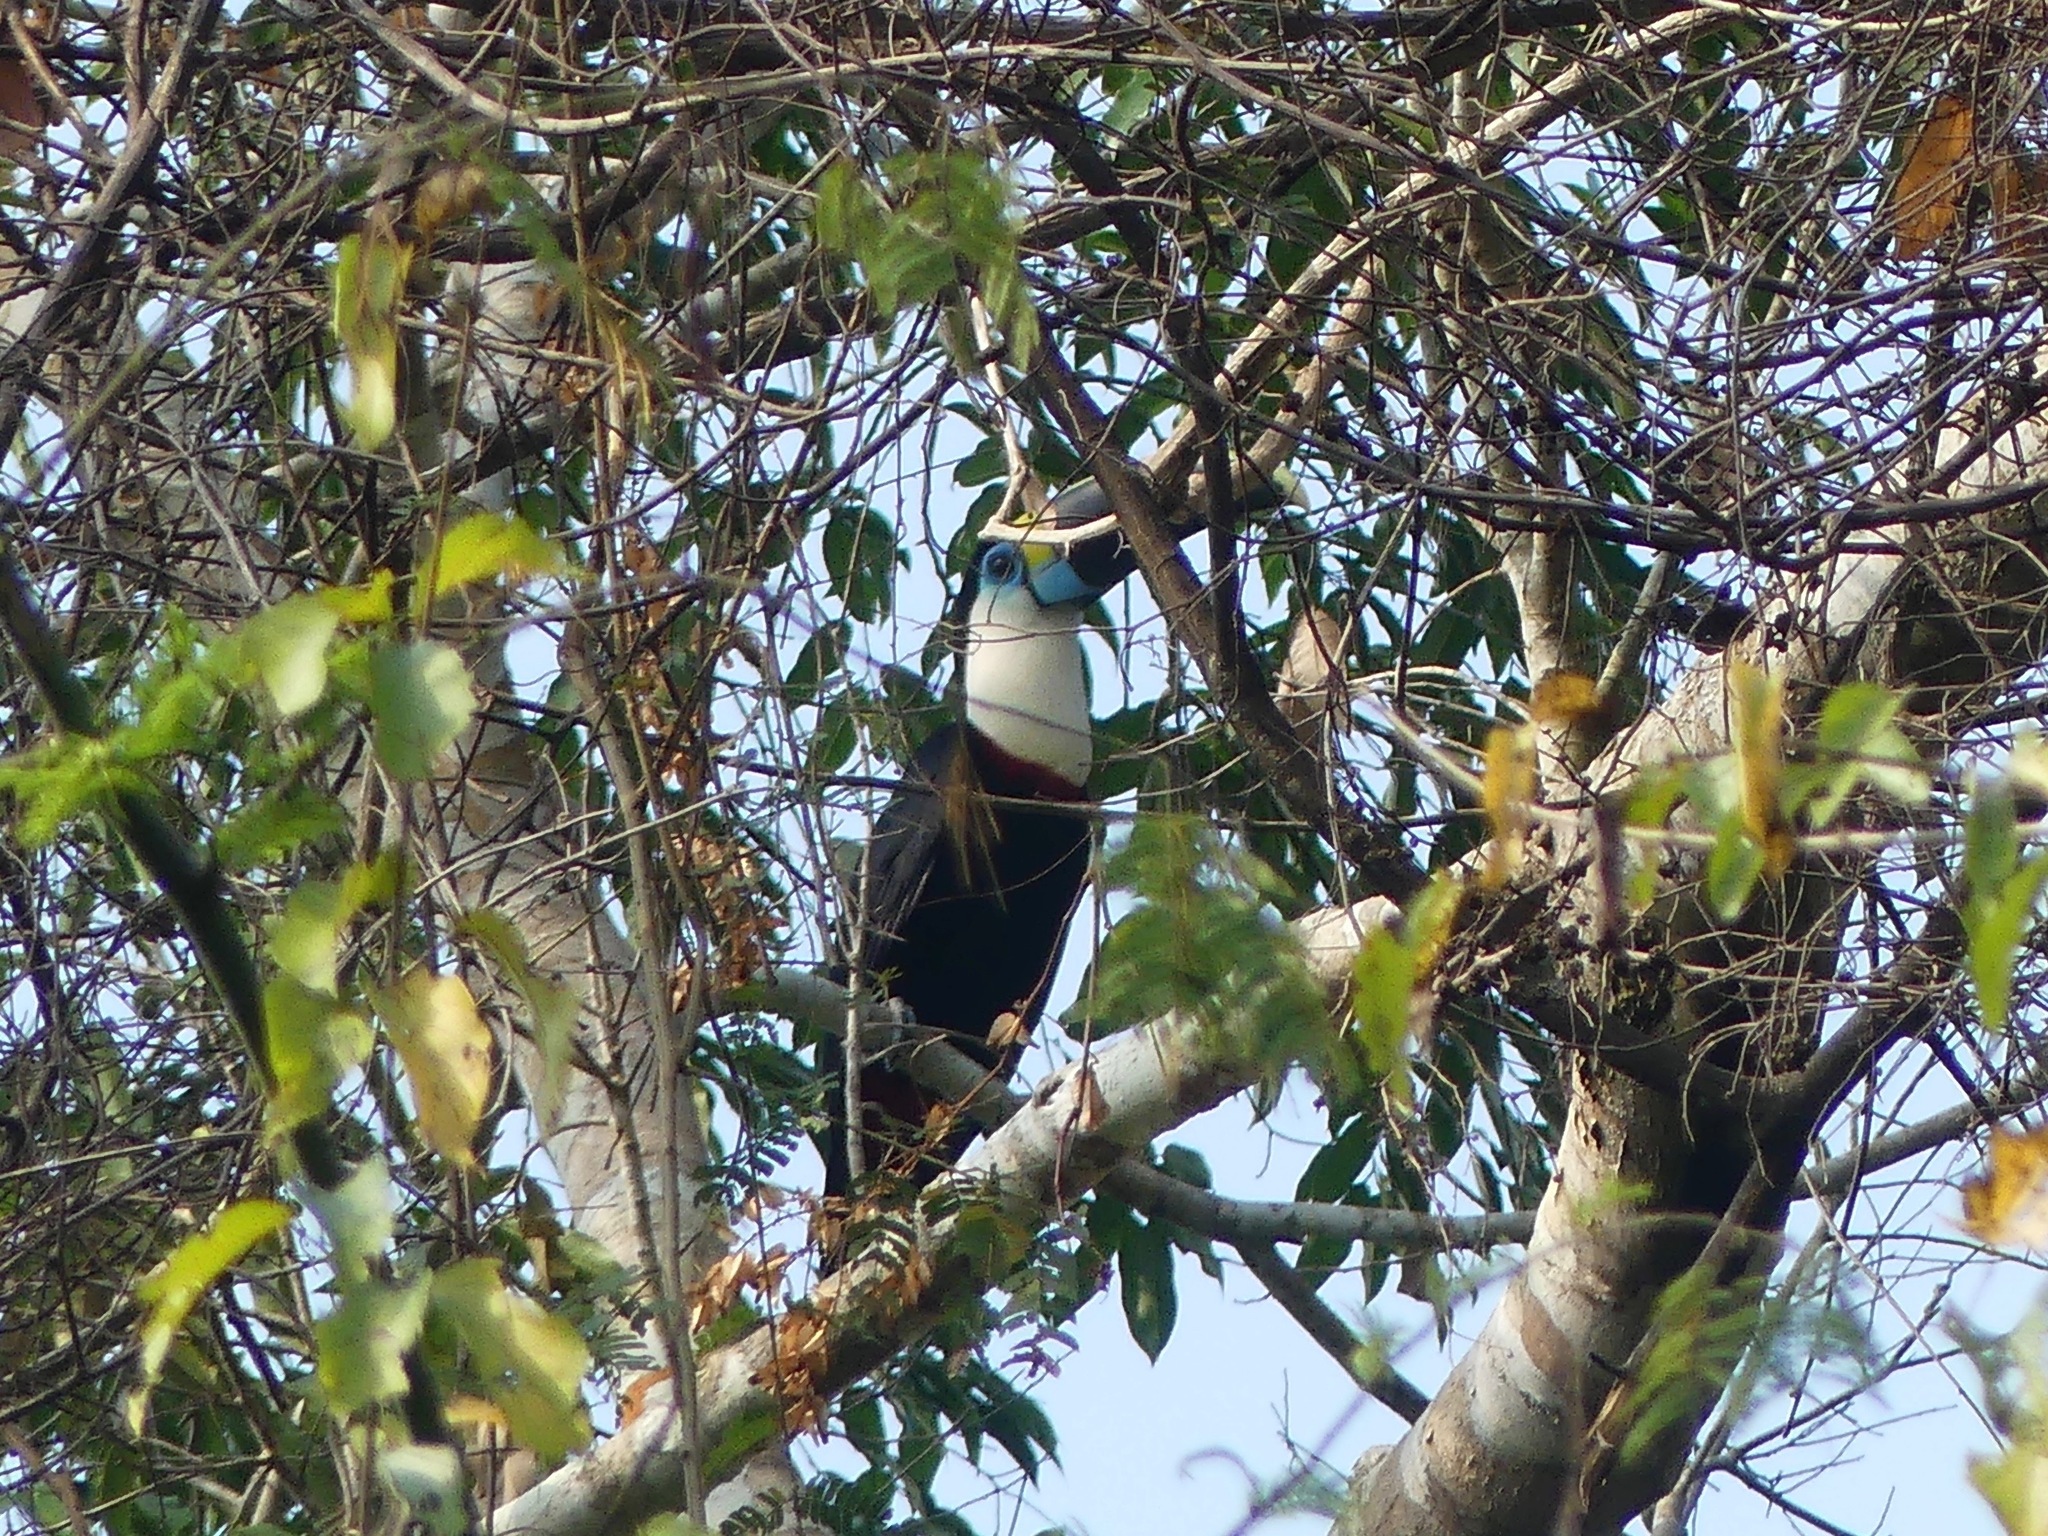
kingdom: Animalia
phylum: Chordata
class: Aves
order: Piciformes
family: Ramphastidae
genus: Ramphastos
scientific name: Ramphastos tucanus
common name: White-throated toucan
